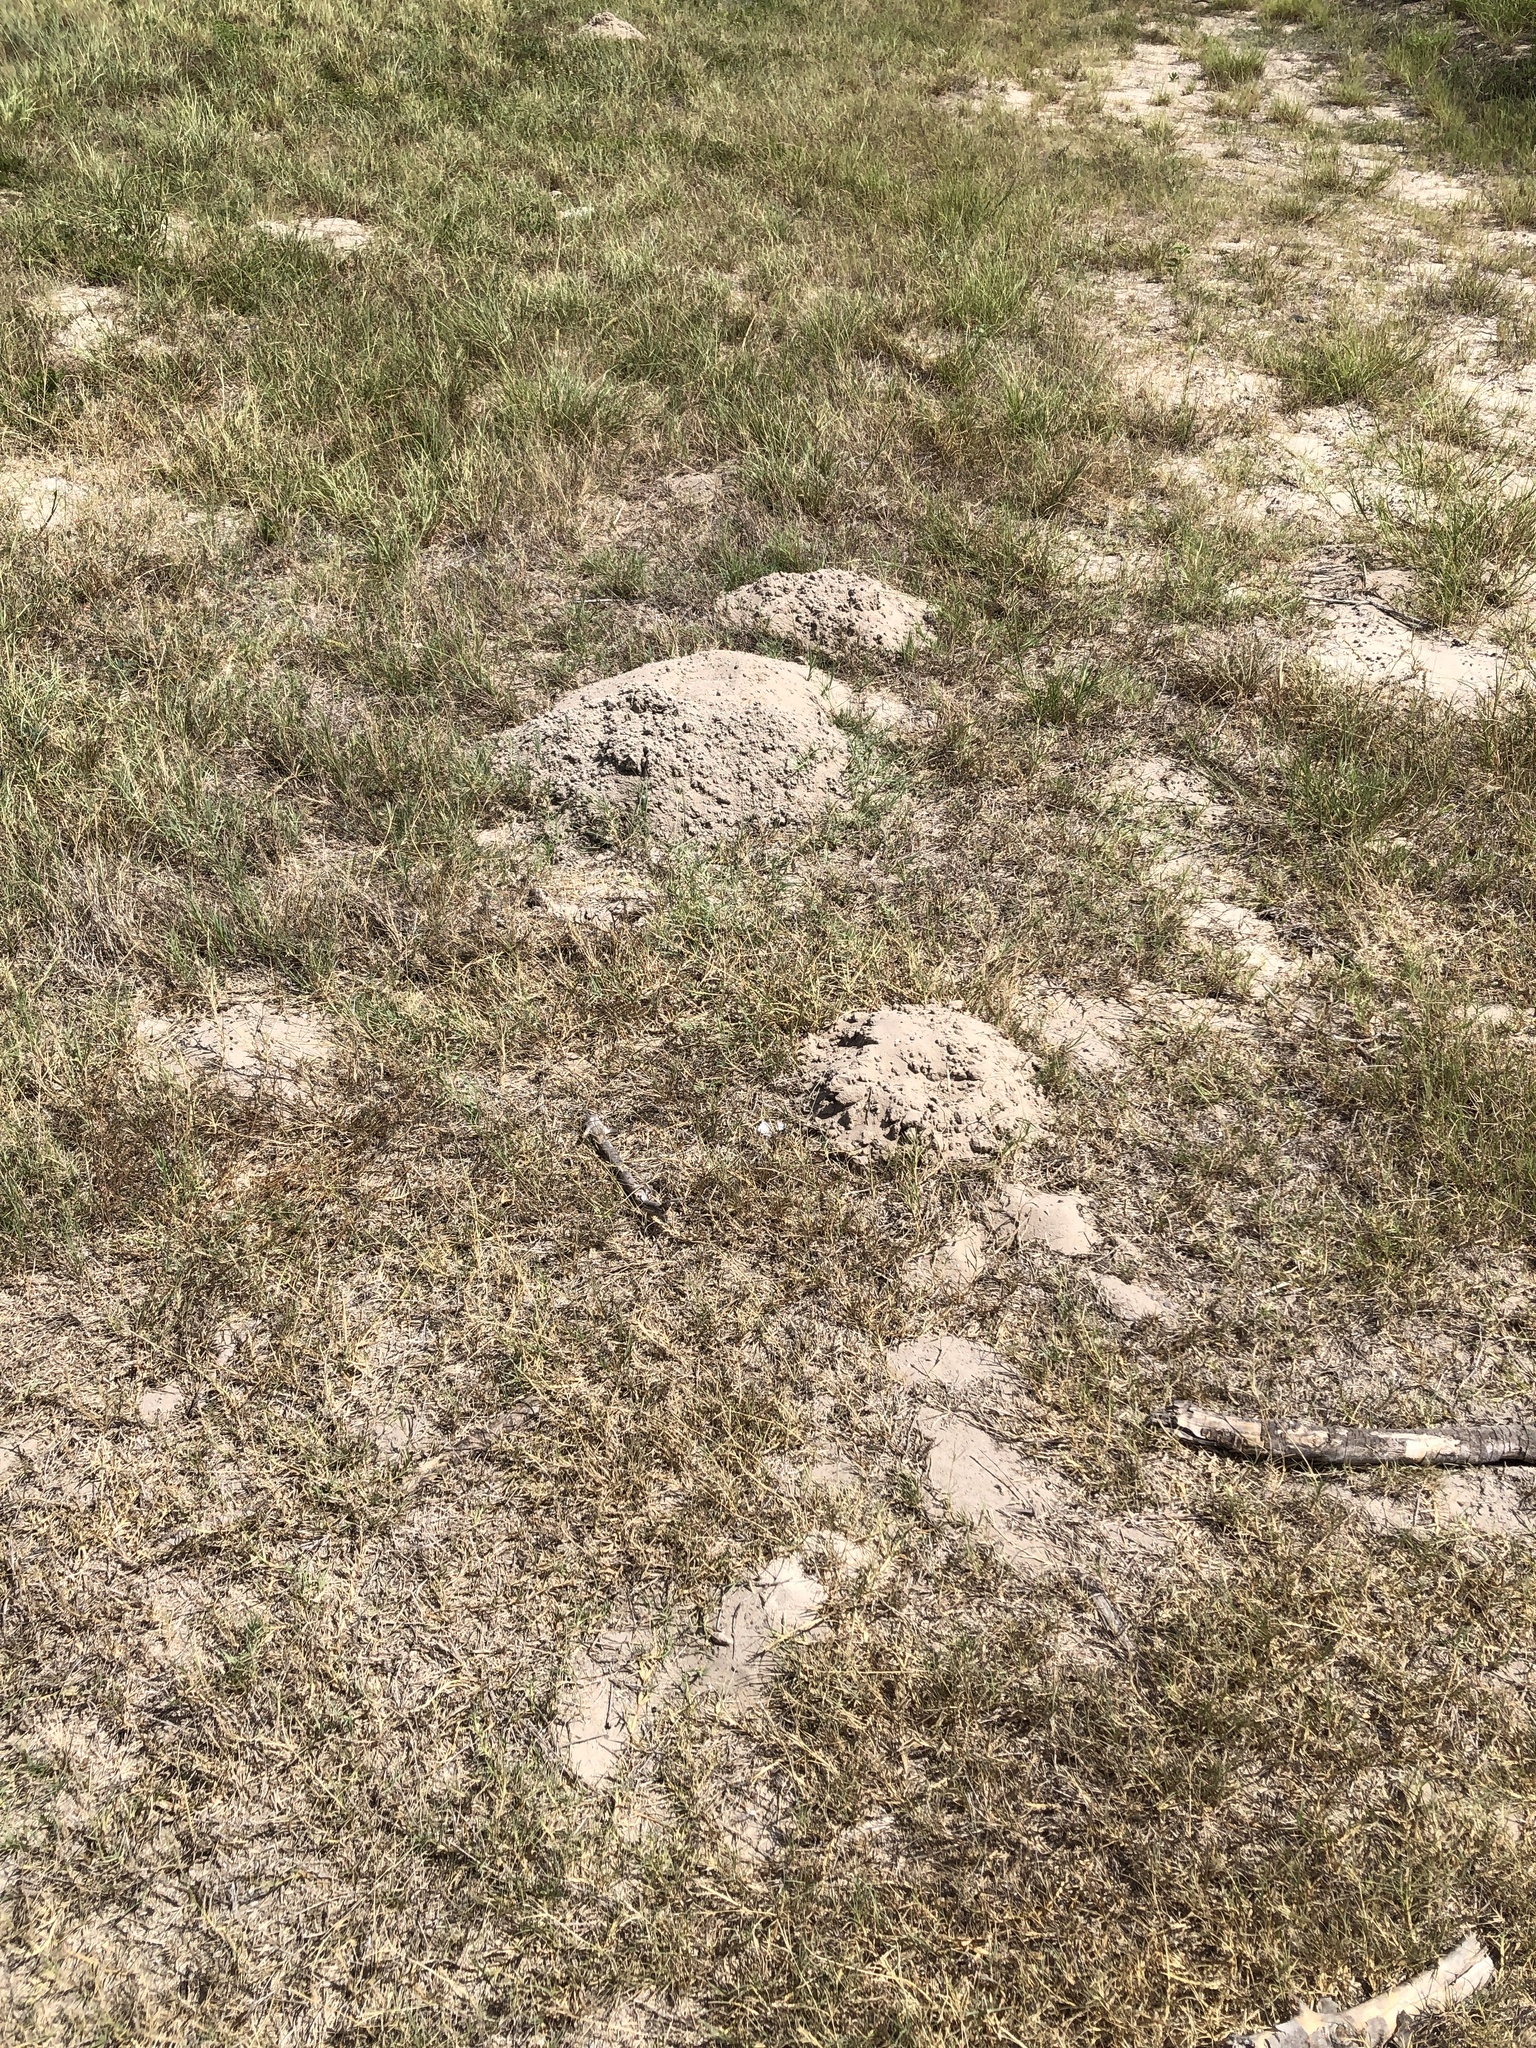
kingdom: Animalia
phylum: Chordata
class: Mammalia
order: Rodentia
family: Geomyidae
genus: Geomys
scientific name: Geomys personatus
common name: Texas pocket gopher
